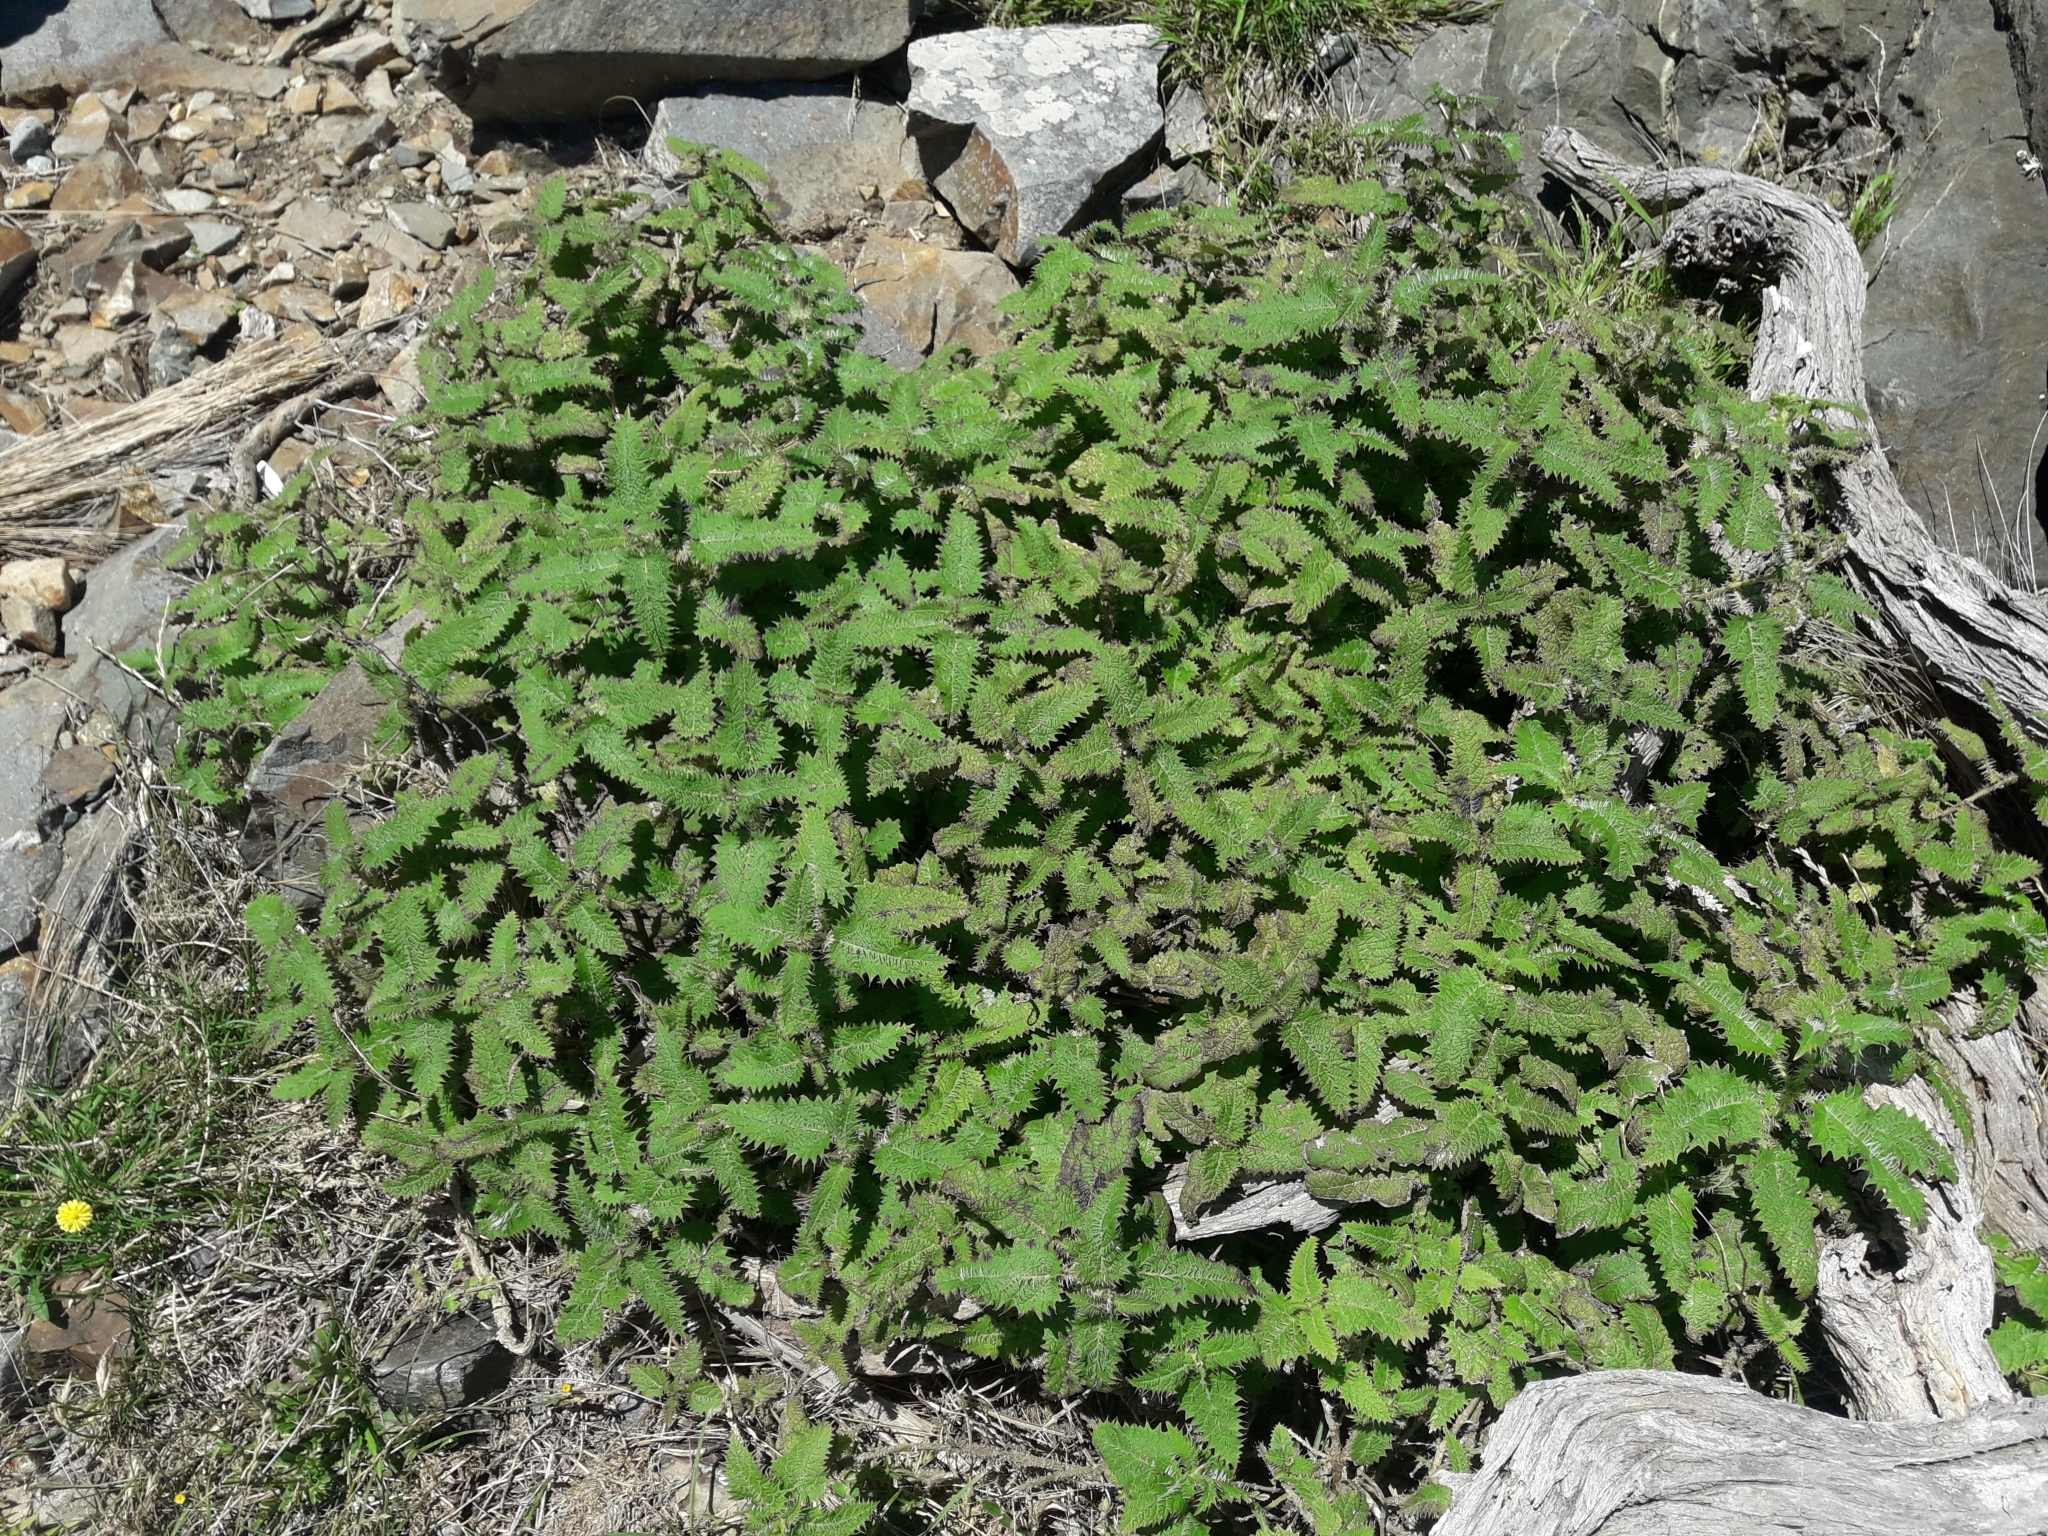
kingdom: Plantae
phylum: Tracheophyta
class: Magnoliopsida
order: Rosales
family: Urticaceae
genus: Urtica
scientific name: Urtica ferox
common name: Tree nettle
